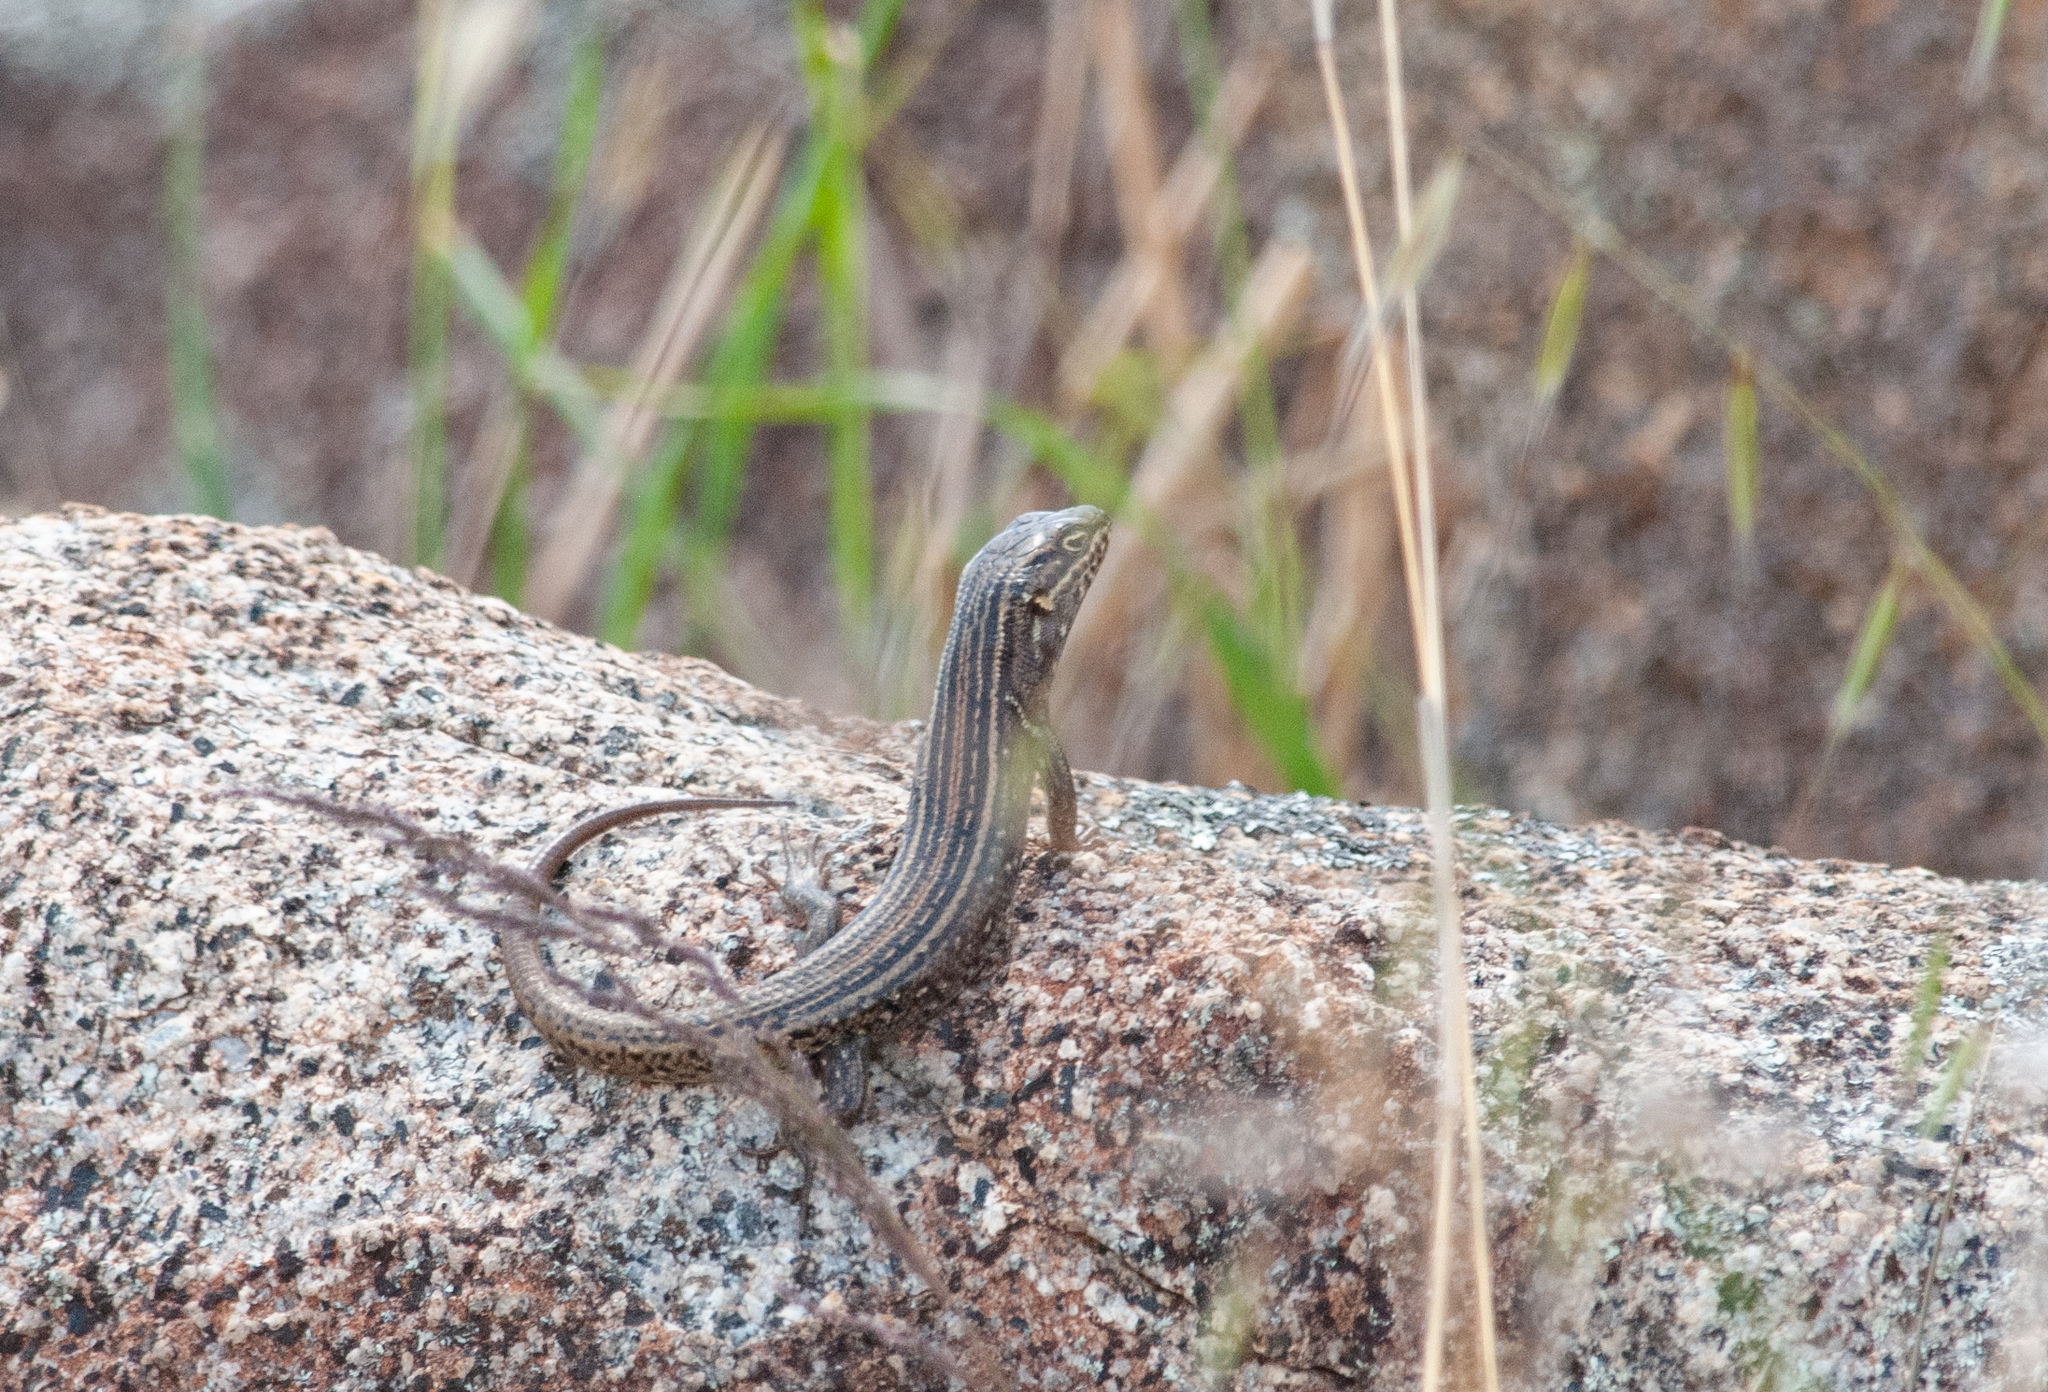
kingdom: Animalia
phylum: Chordata
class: Squamata
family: Scincidae
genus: Liopholis
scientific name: Liopholis whitii
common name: White's rock-skink
